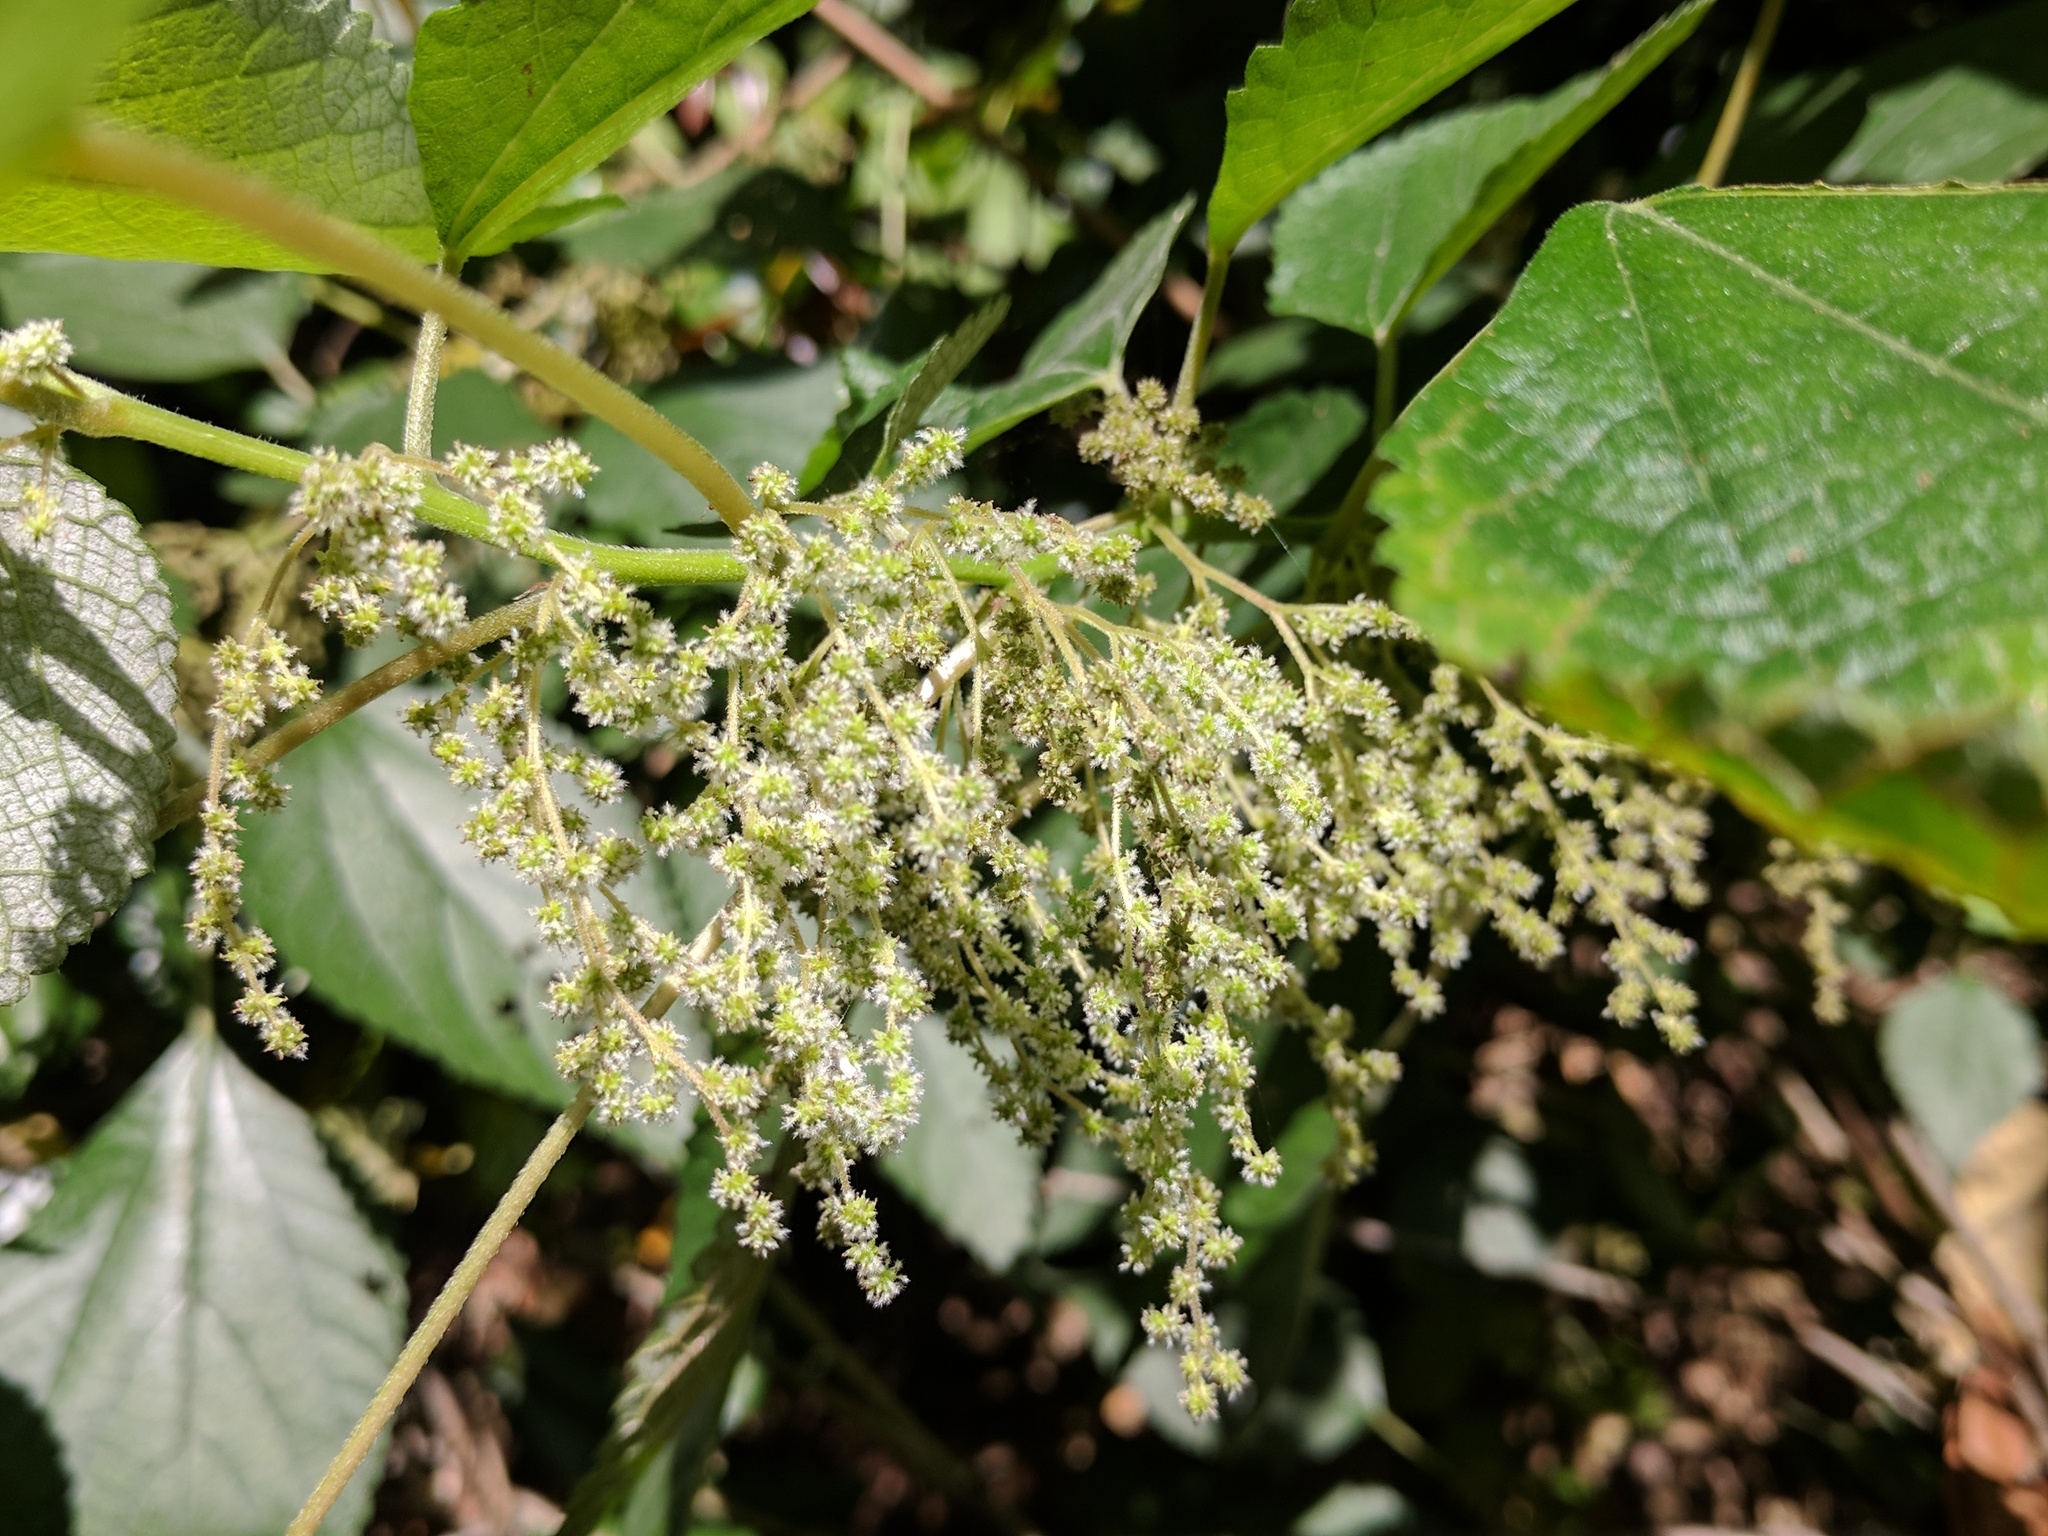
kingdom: Plantae
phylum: Tracheophyta
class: Magnoliopsida
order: Rosales
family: Urticaceae
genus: Boehmeria
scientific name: Boehmeria nivea
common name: Ramie chinese grass
